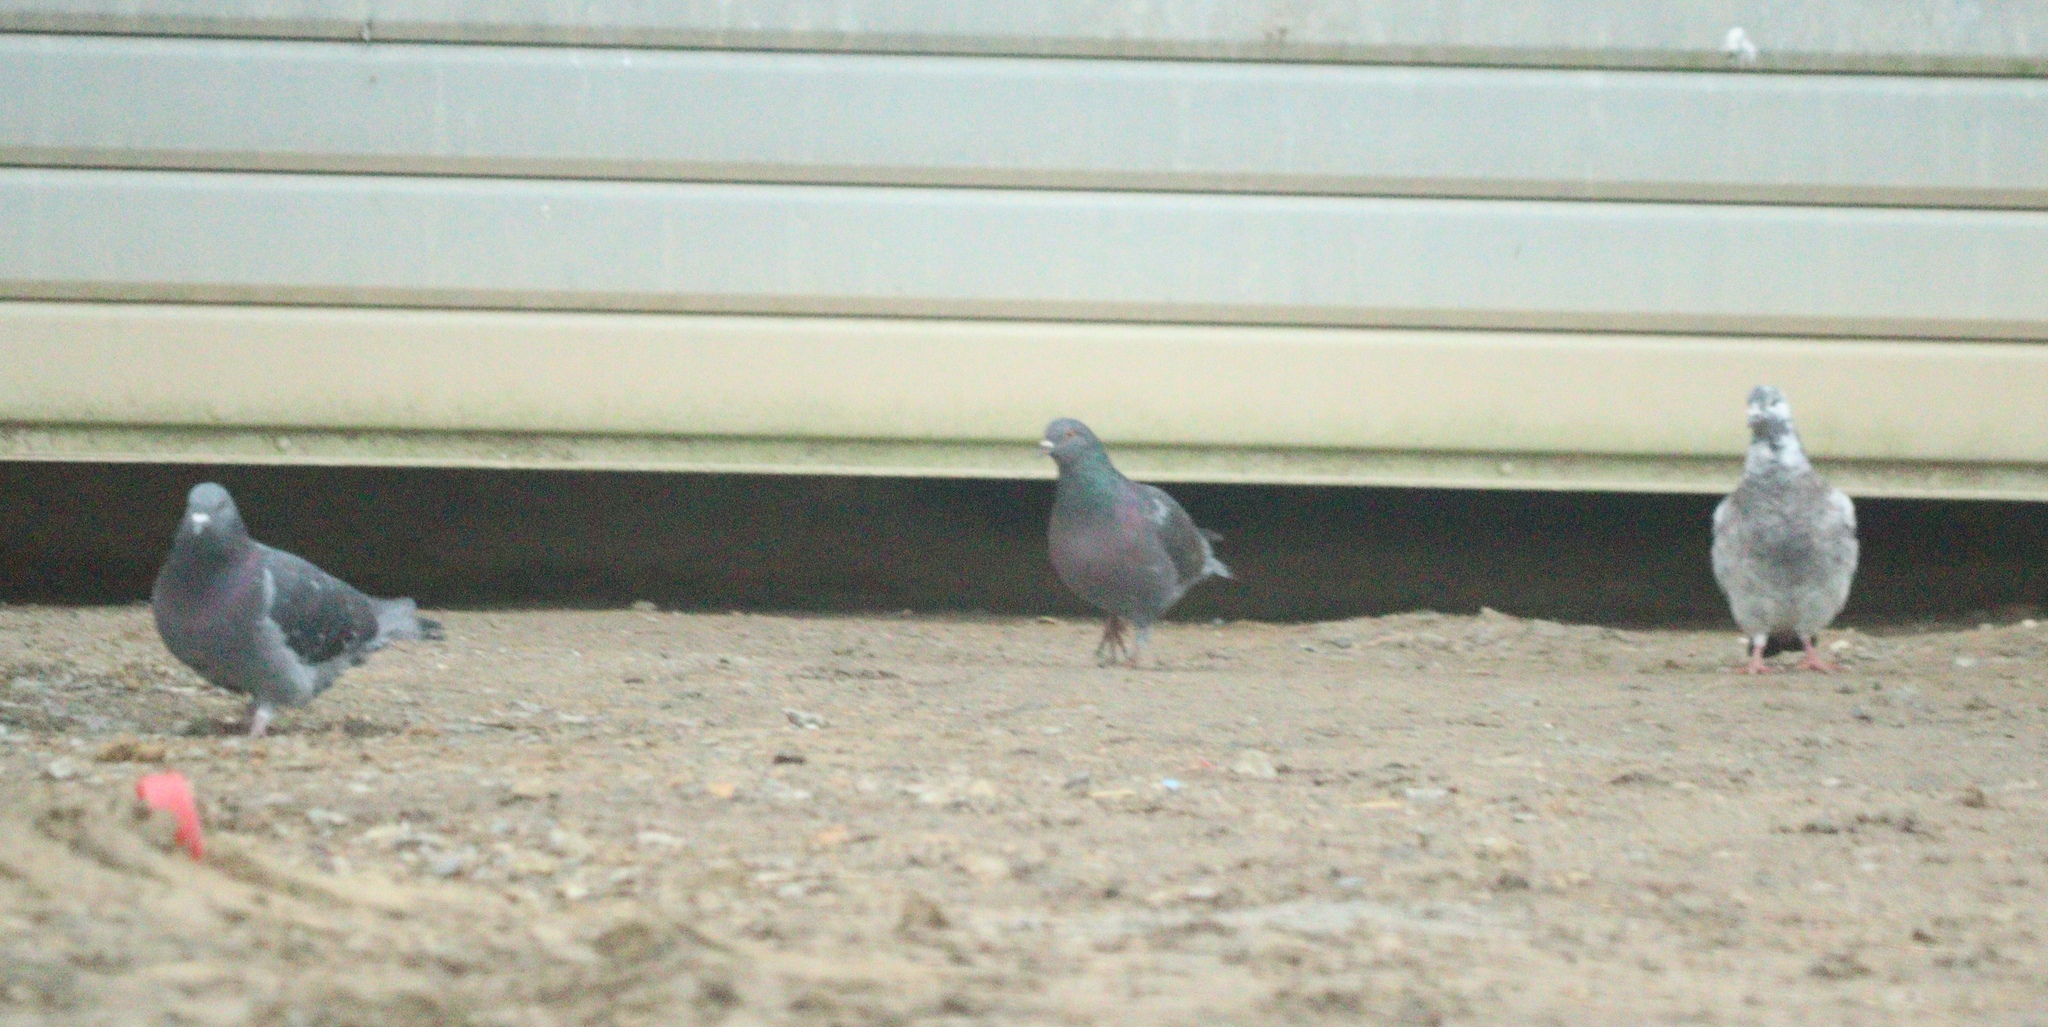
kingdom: Animalia
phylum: Chordata
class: Aves
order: Columbiformes
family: Columbidae
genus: Columba
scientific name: Columba livia
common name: Rock pigeon
